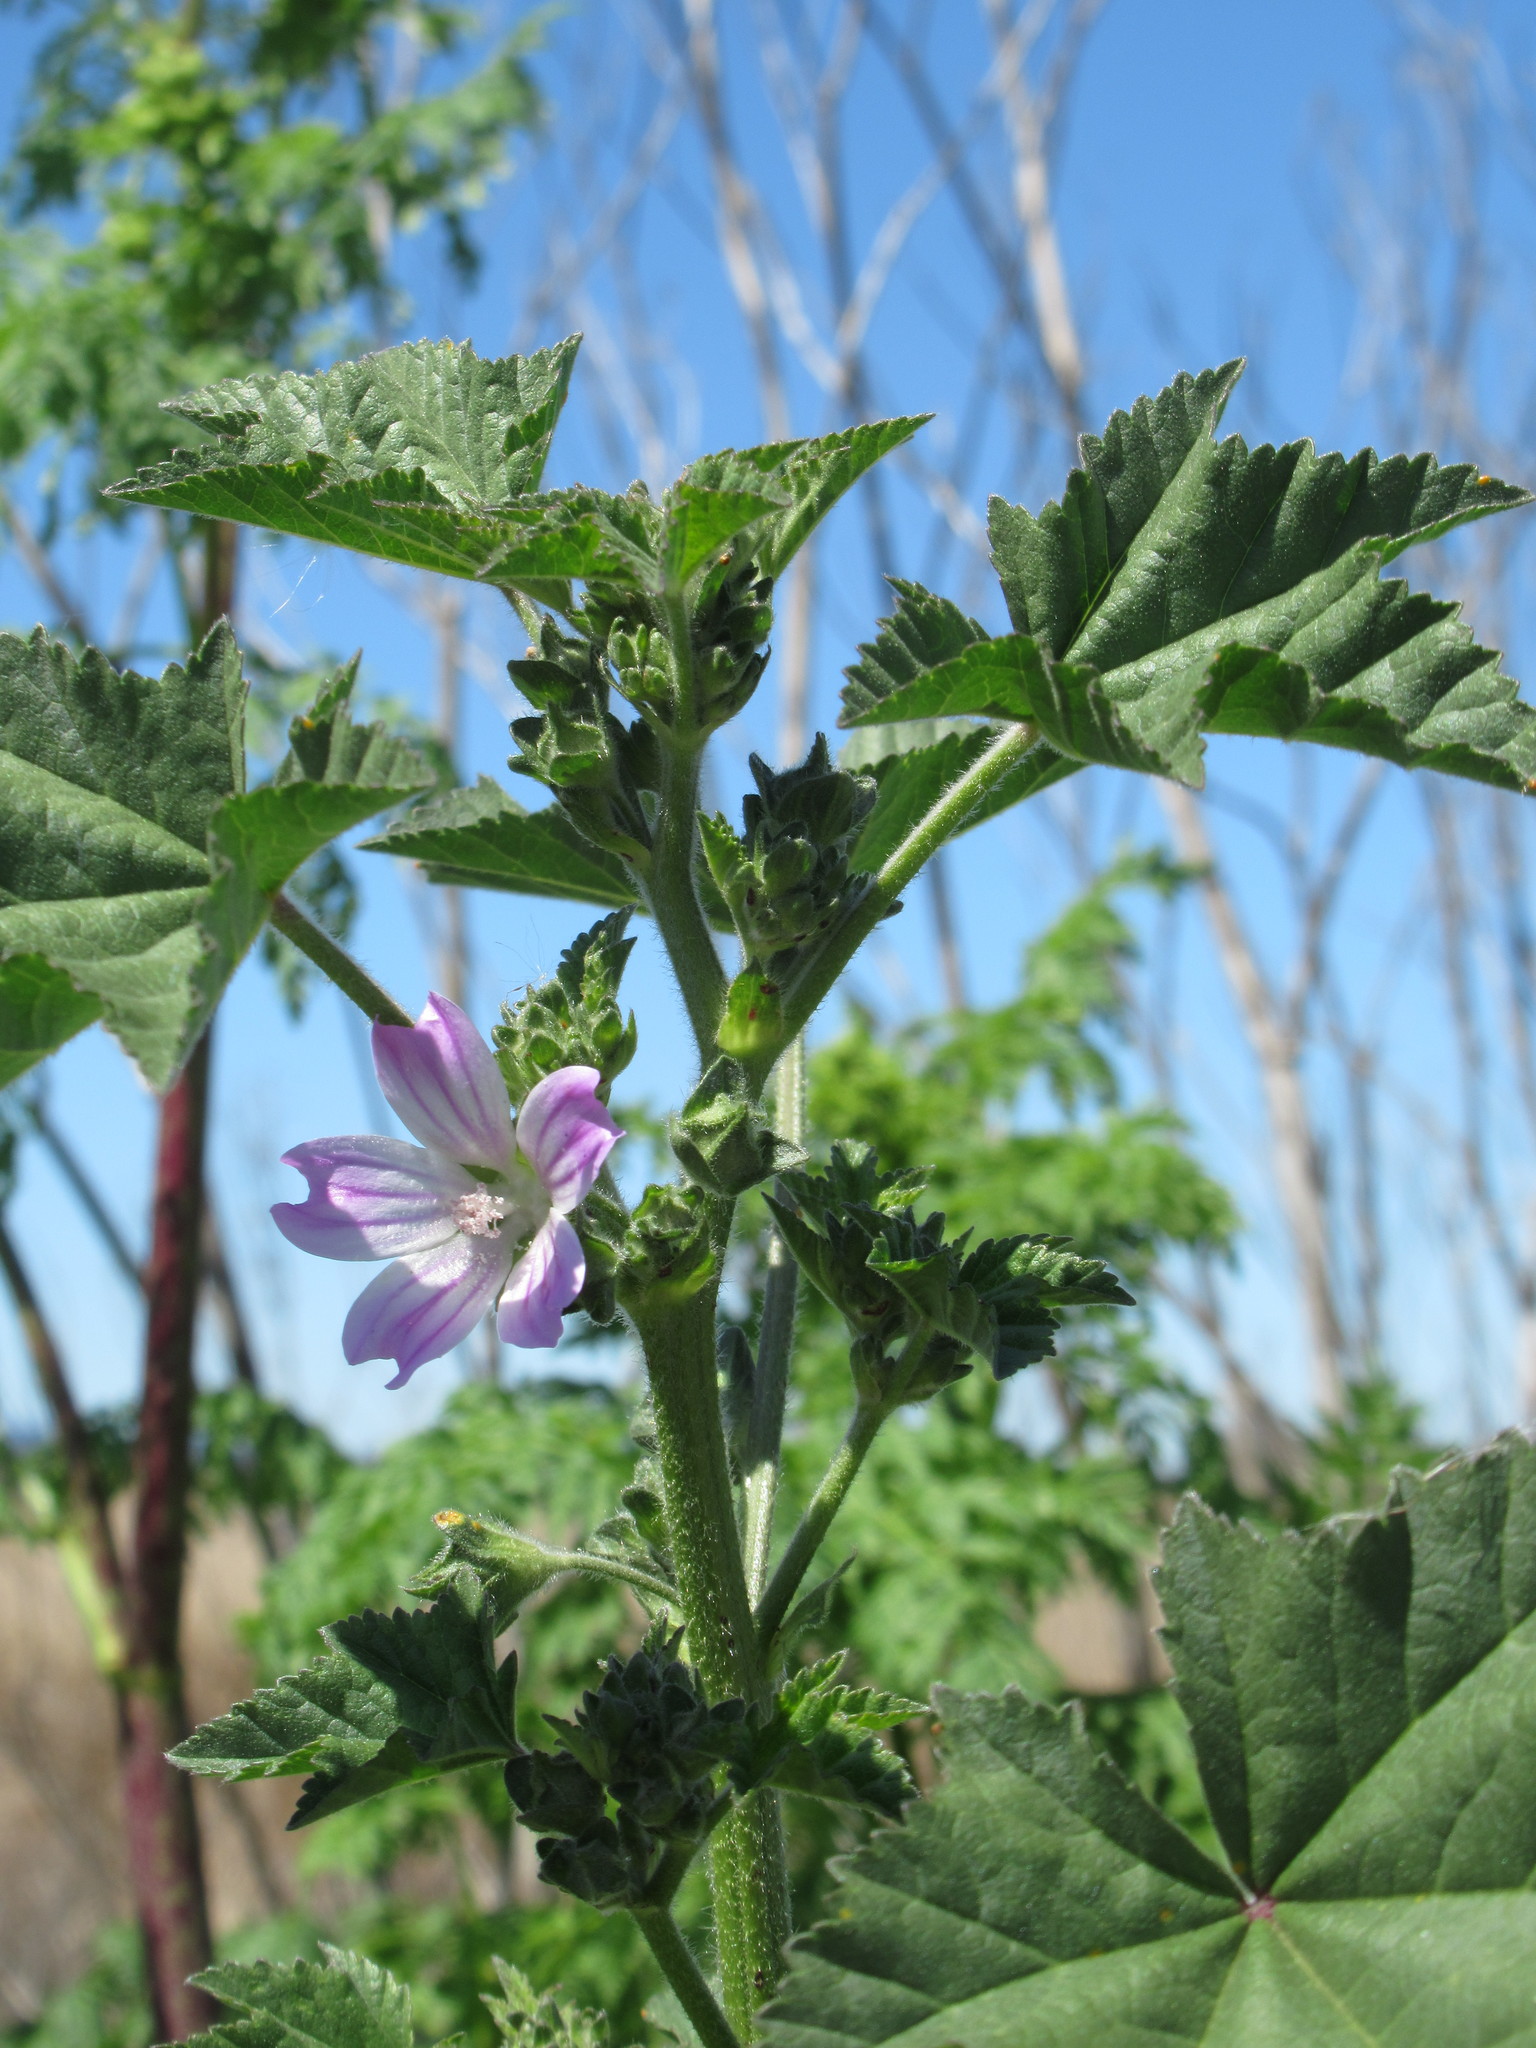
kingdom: Plantae
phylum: Tracheophyta
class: Magnoliopsida
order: Malvales
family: Malvaceae
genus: Malva
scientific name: Malva multiflora
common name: Cheeseweed
